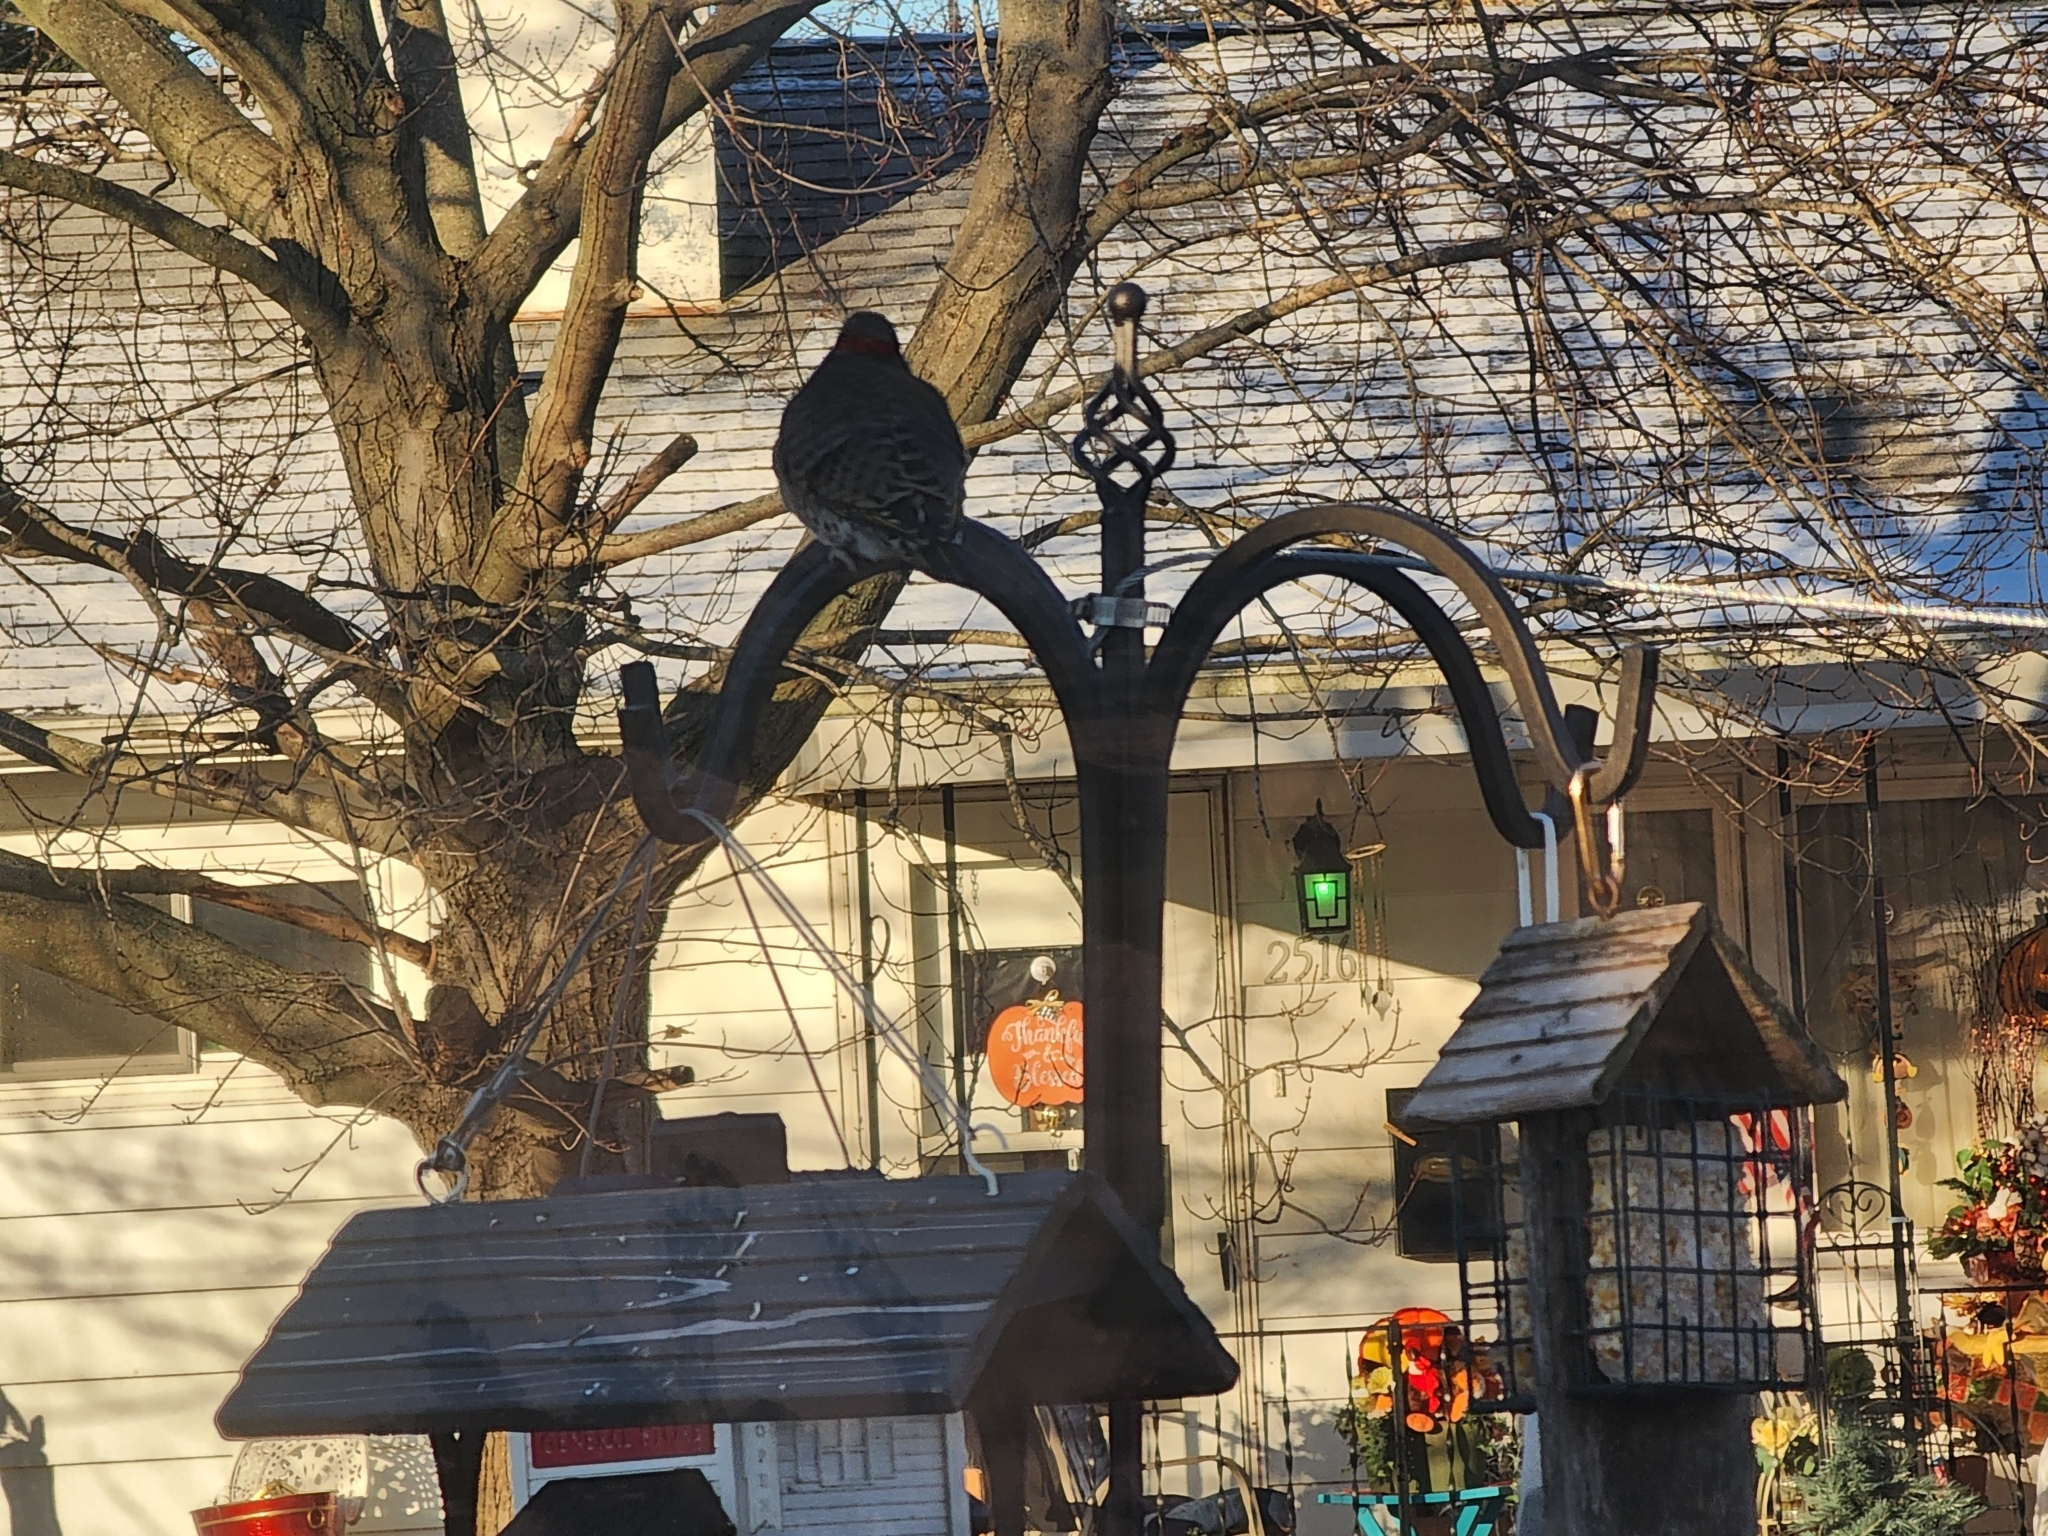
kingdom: Animalia
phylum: Chordata
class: Aves
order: Piciformes
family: Picidae
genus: Colaptes
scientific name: Colaptes auratus
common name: Northern flicker
